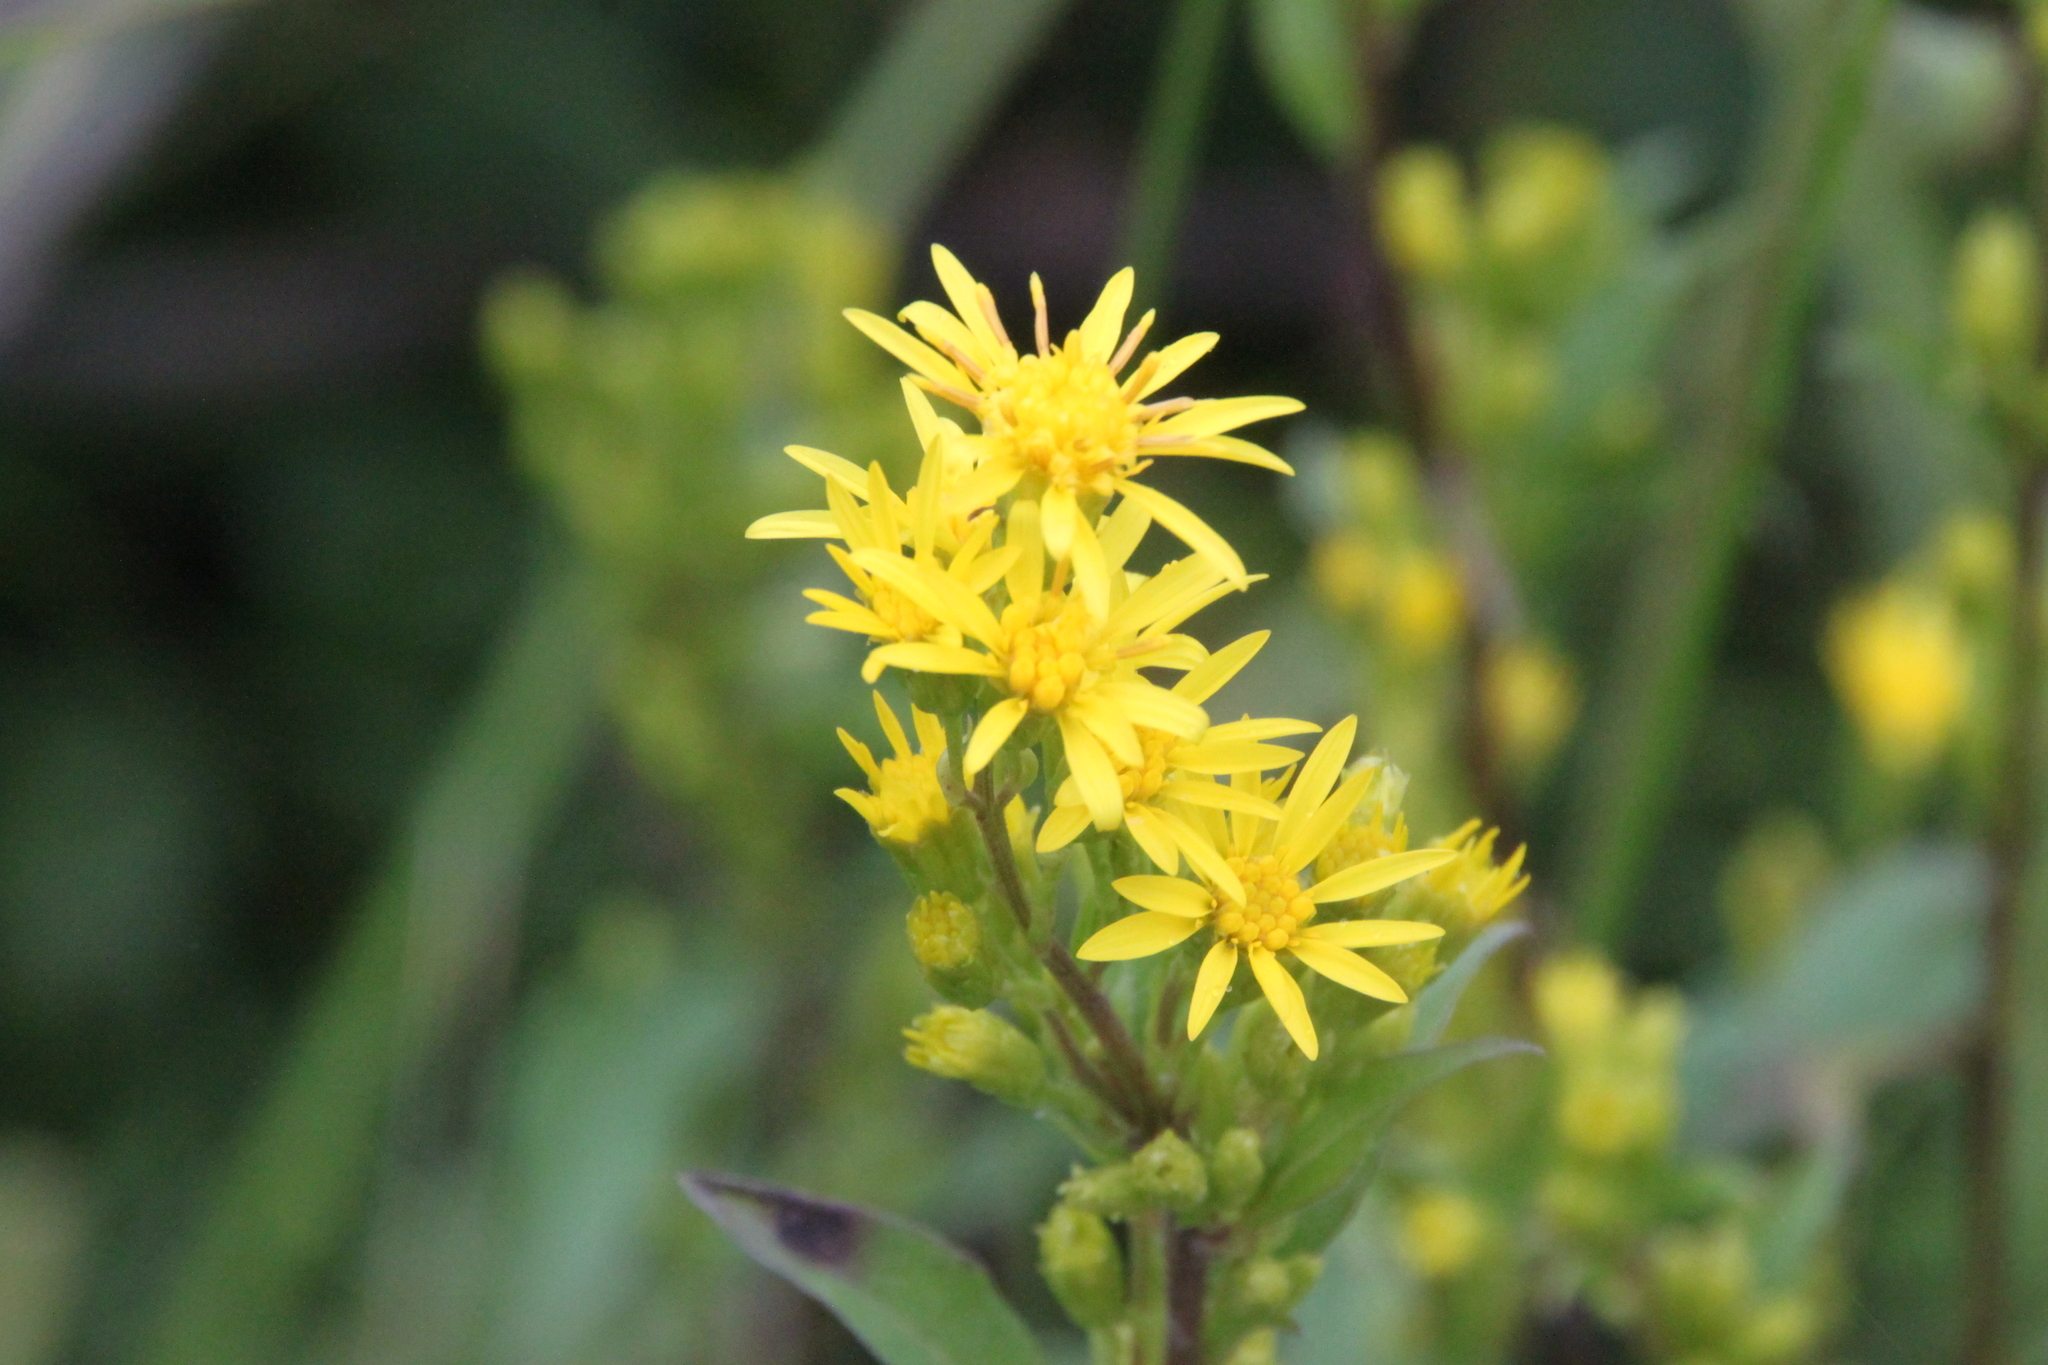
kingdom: Plantae
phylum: Tracheophyta
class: Magnoliopsida
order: Asterales
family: Asteraceae
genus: Solidago
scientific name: Solidago virgaurea
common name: Goldenrod
